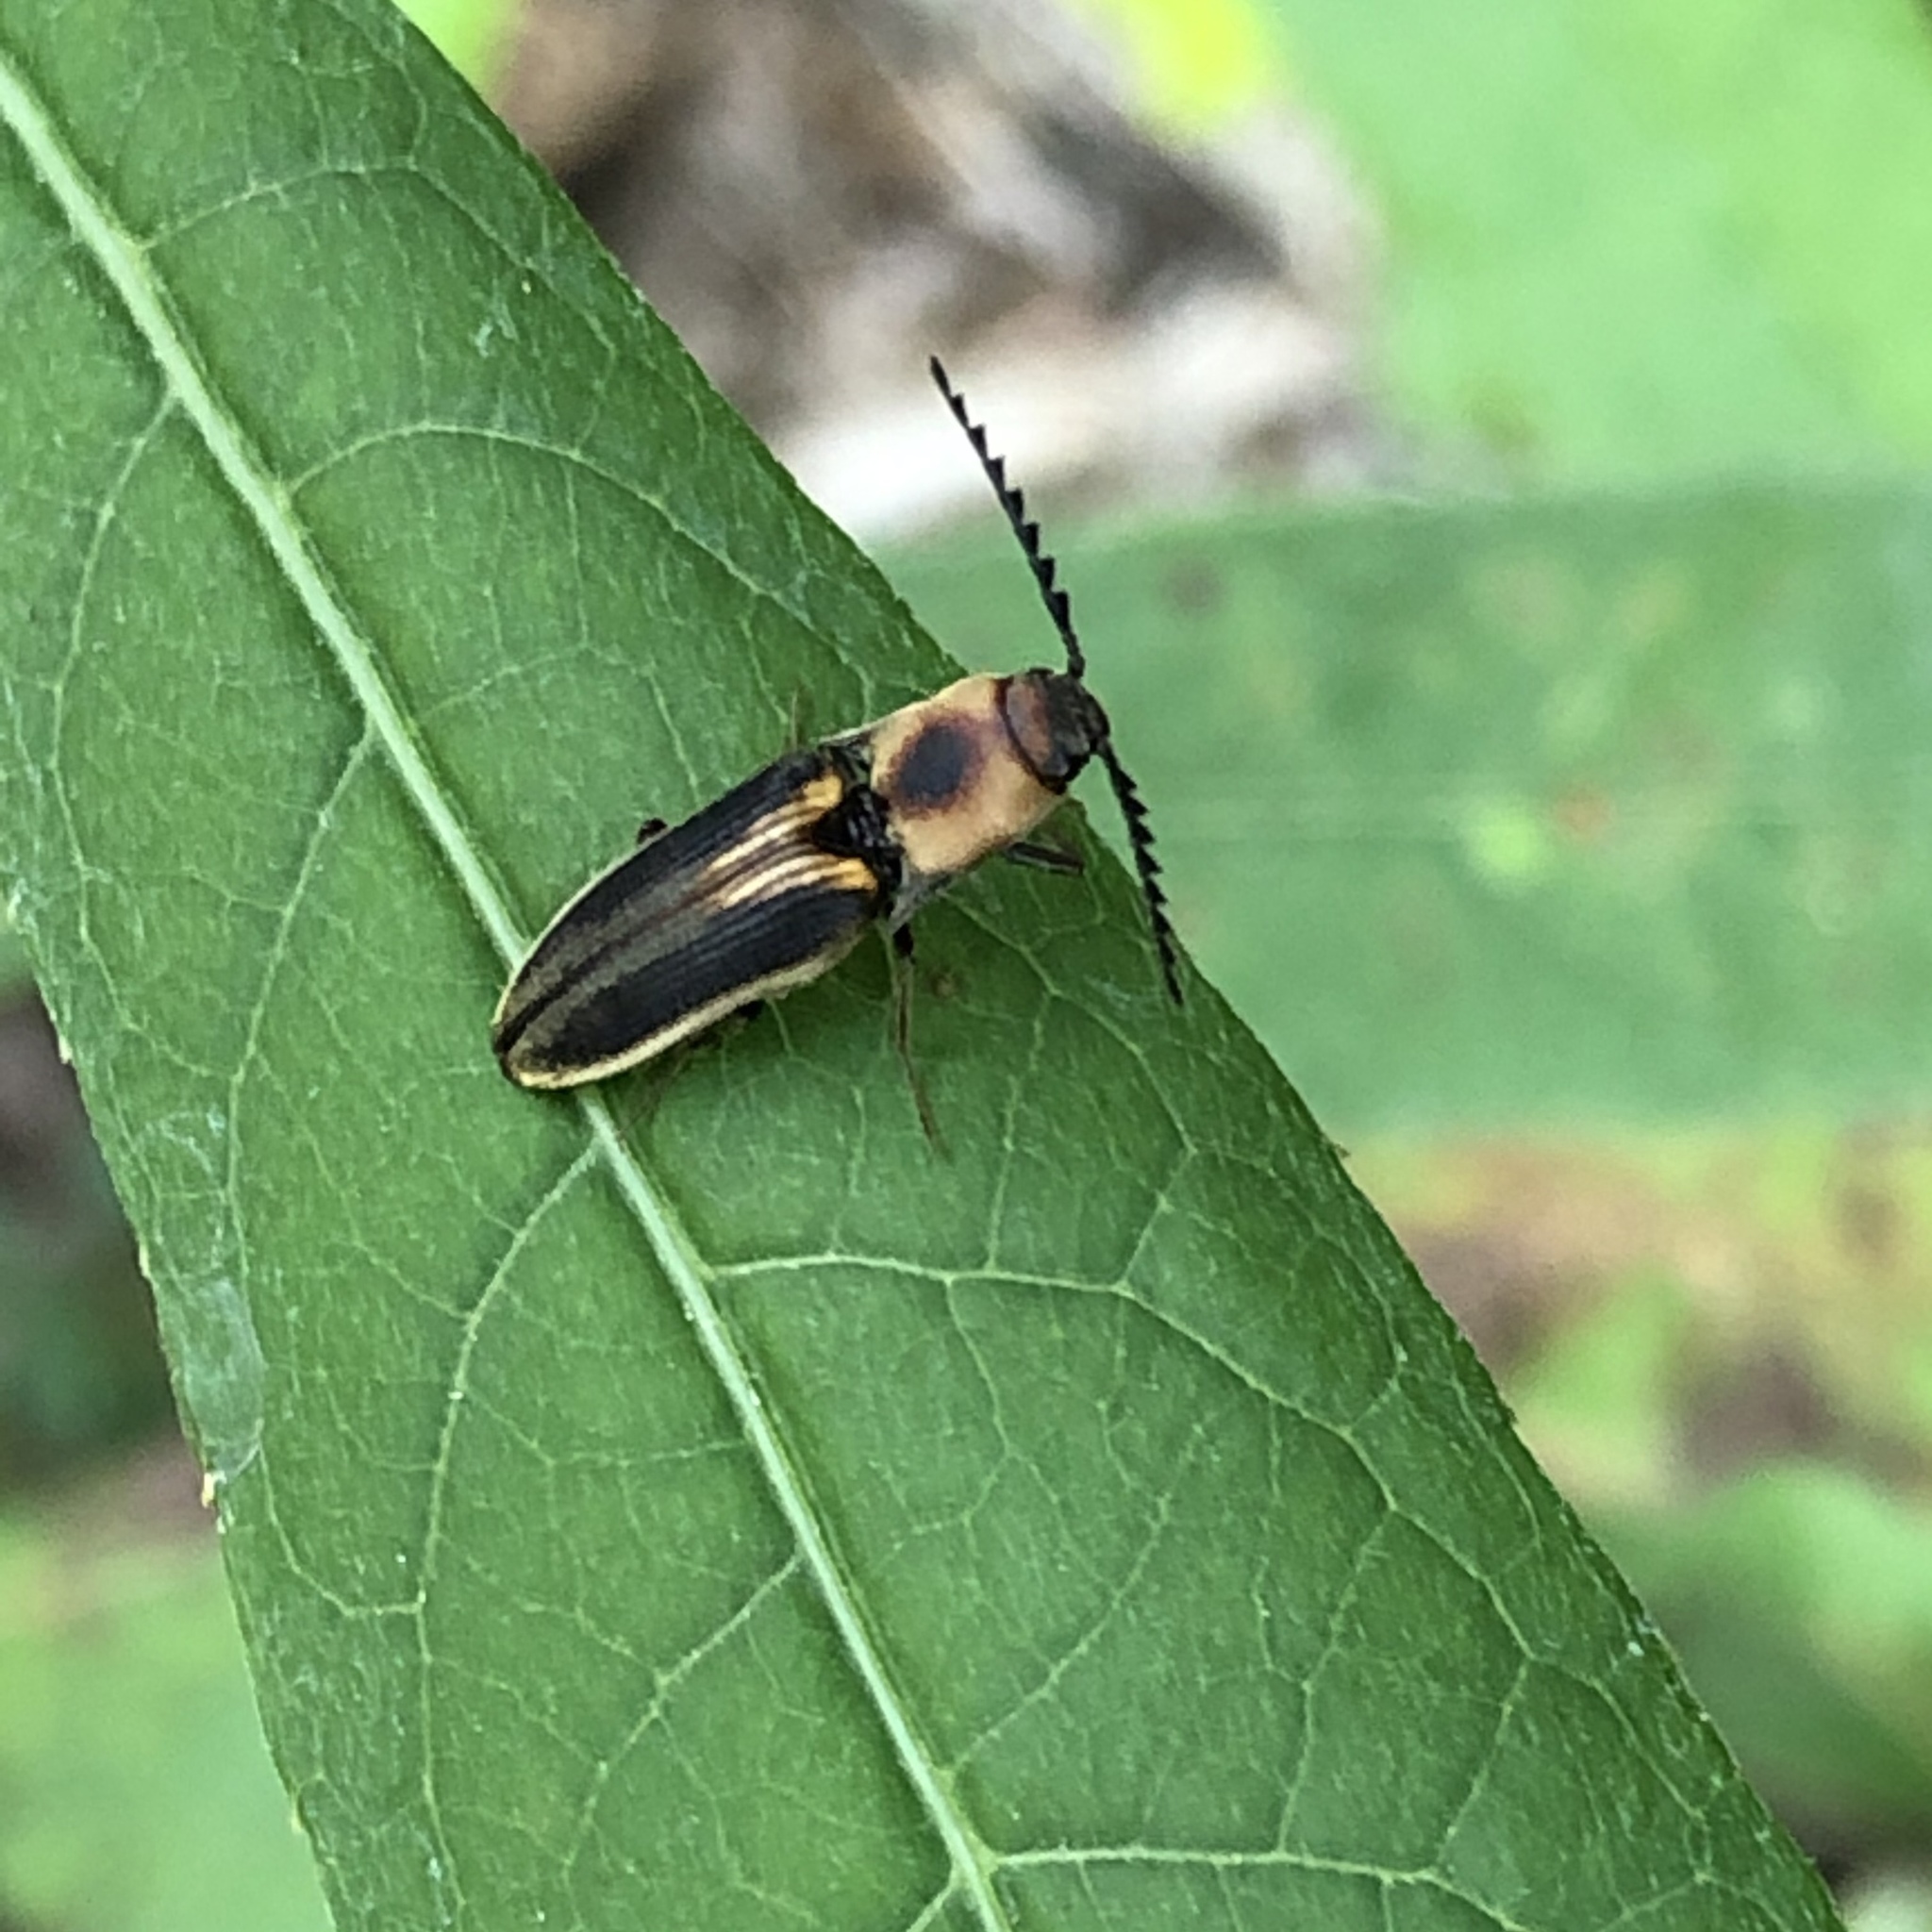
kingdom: Animalia
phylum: Arthropoda
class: Insecta
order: Coleoptera
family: Elateridae
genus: Megapenthes
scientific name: Megapenthes
